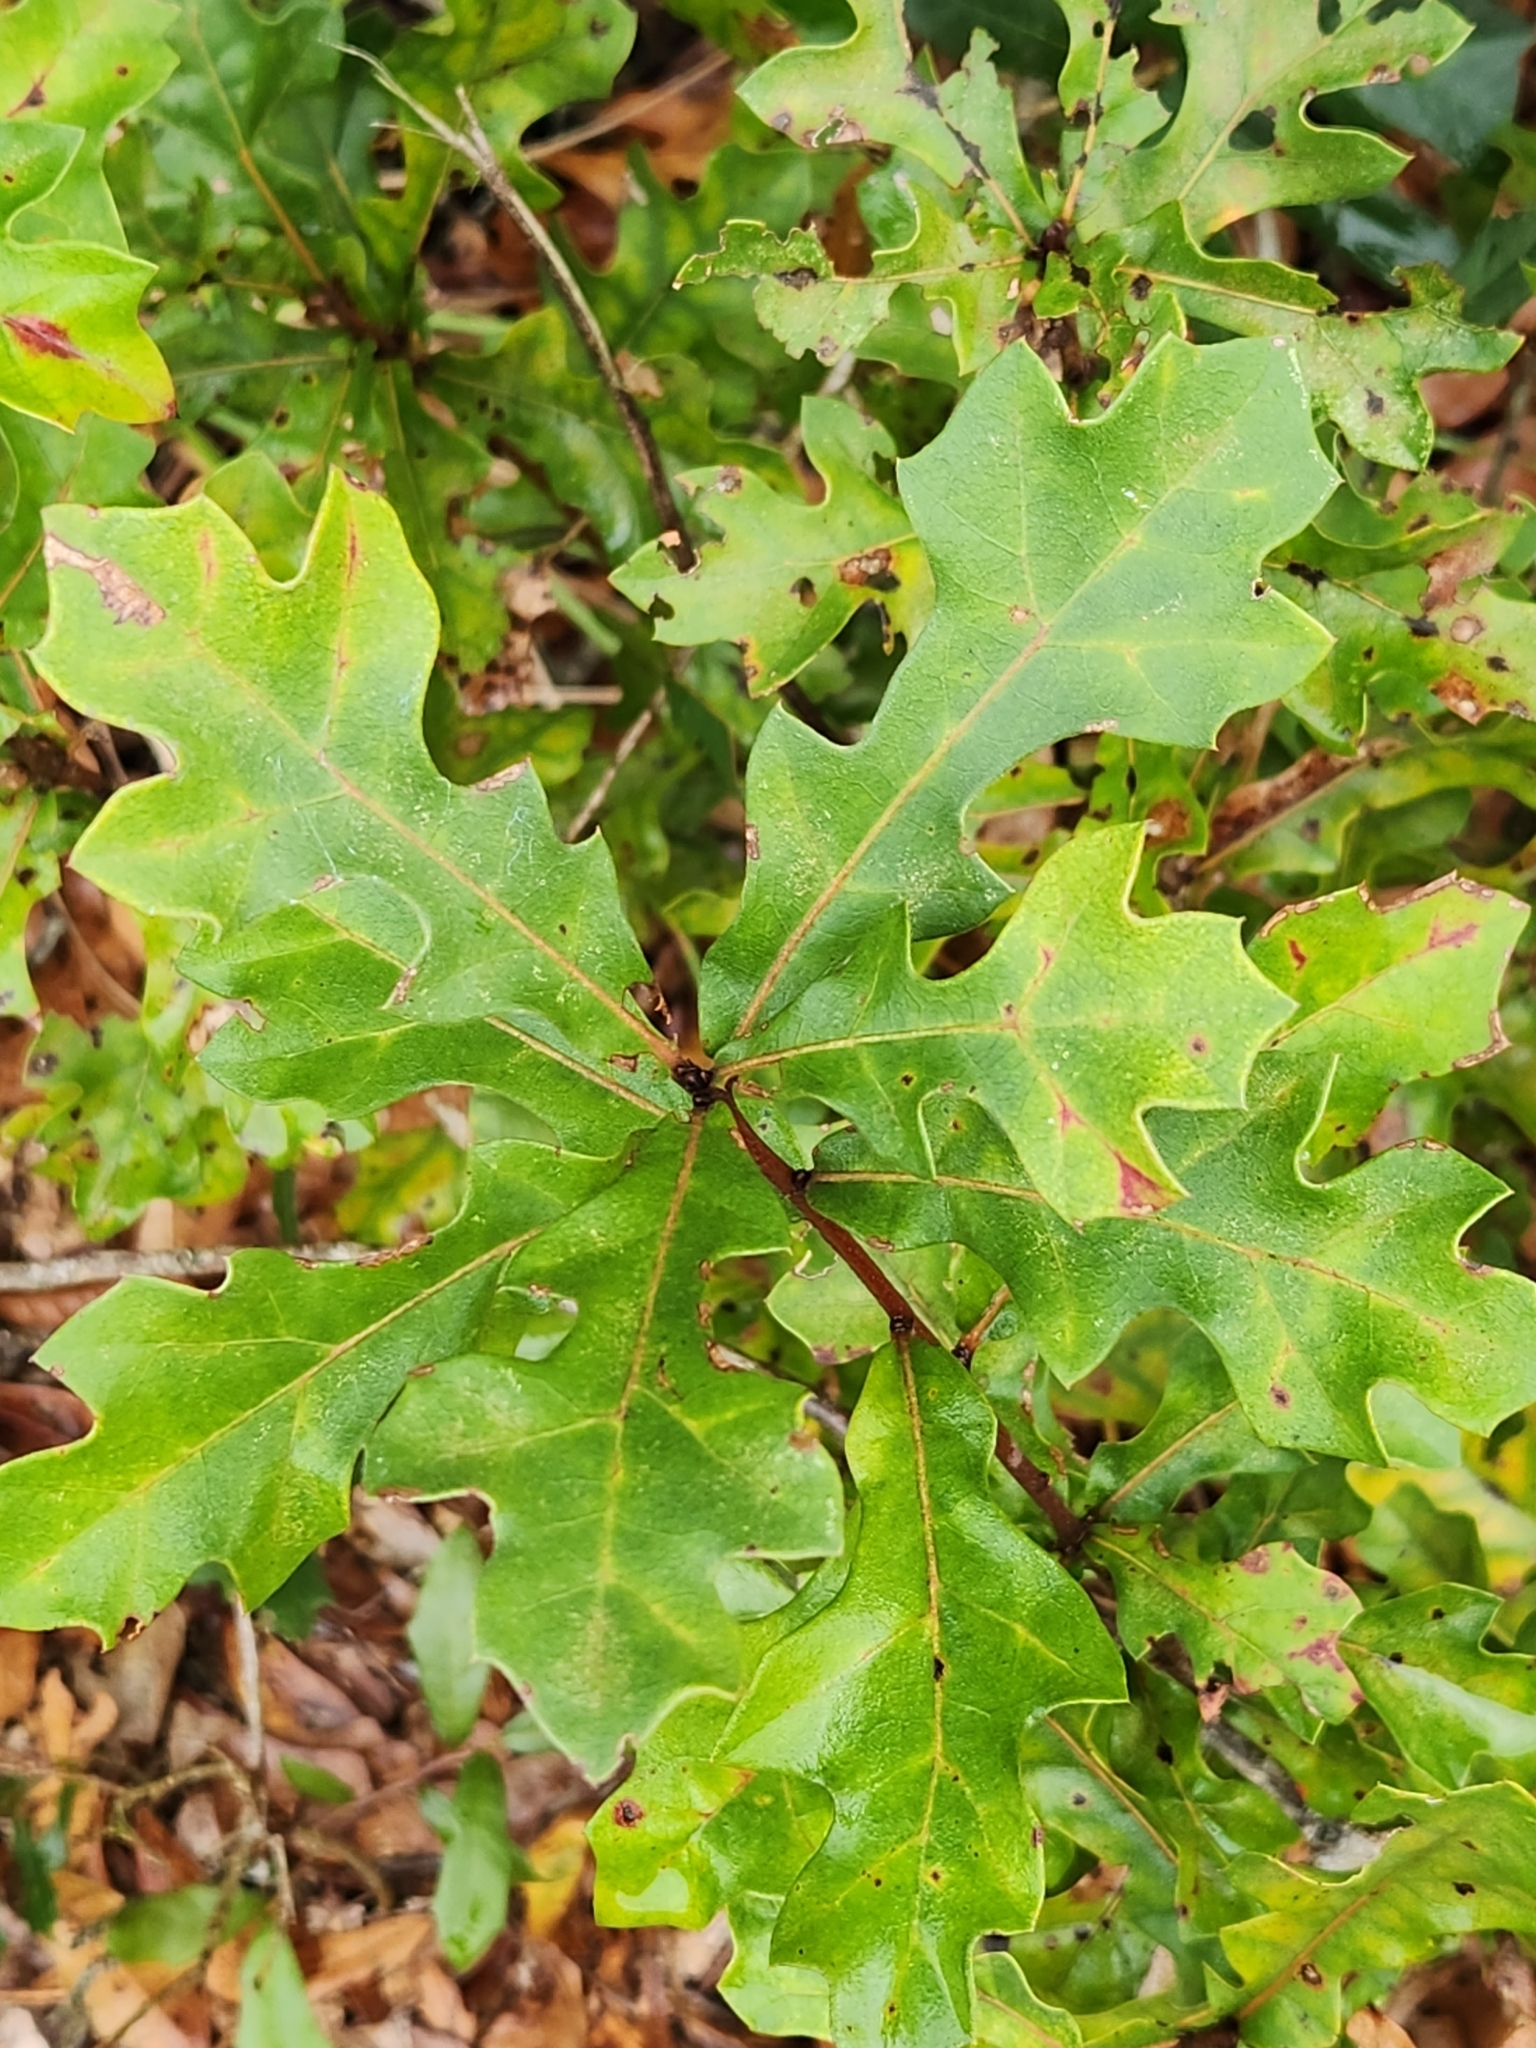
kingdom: Plantae
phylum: Tracheophyta
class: Magnoliopsida
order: Fagales
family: Fagaceae
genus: Quercus
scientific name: Quercus nigra
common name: Water oak
